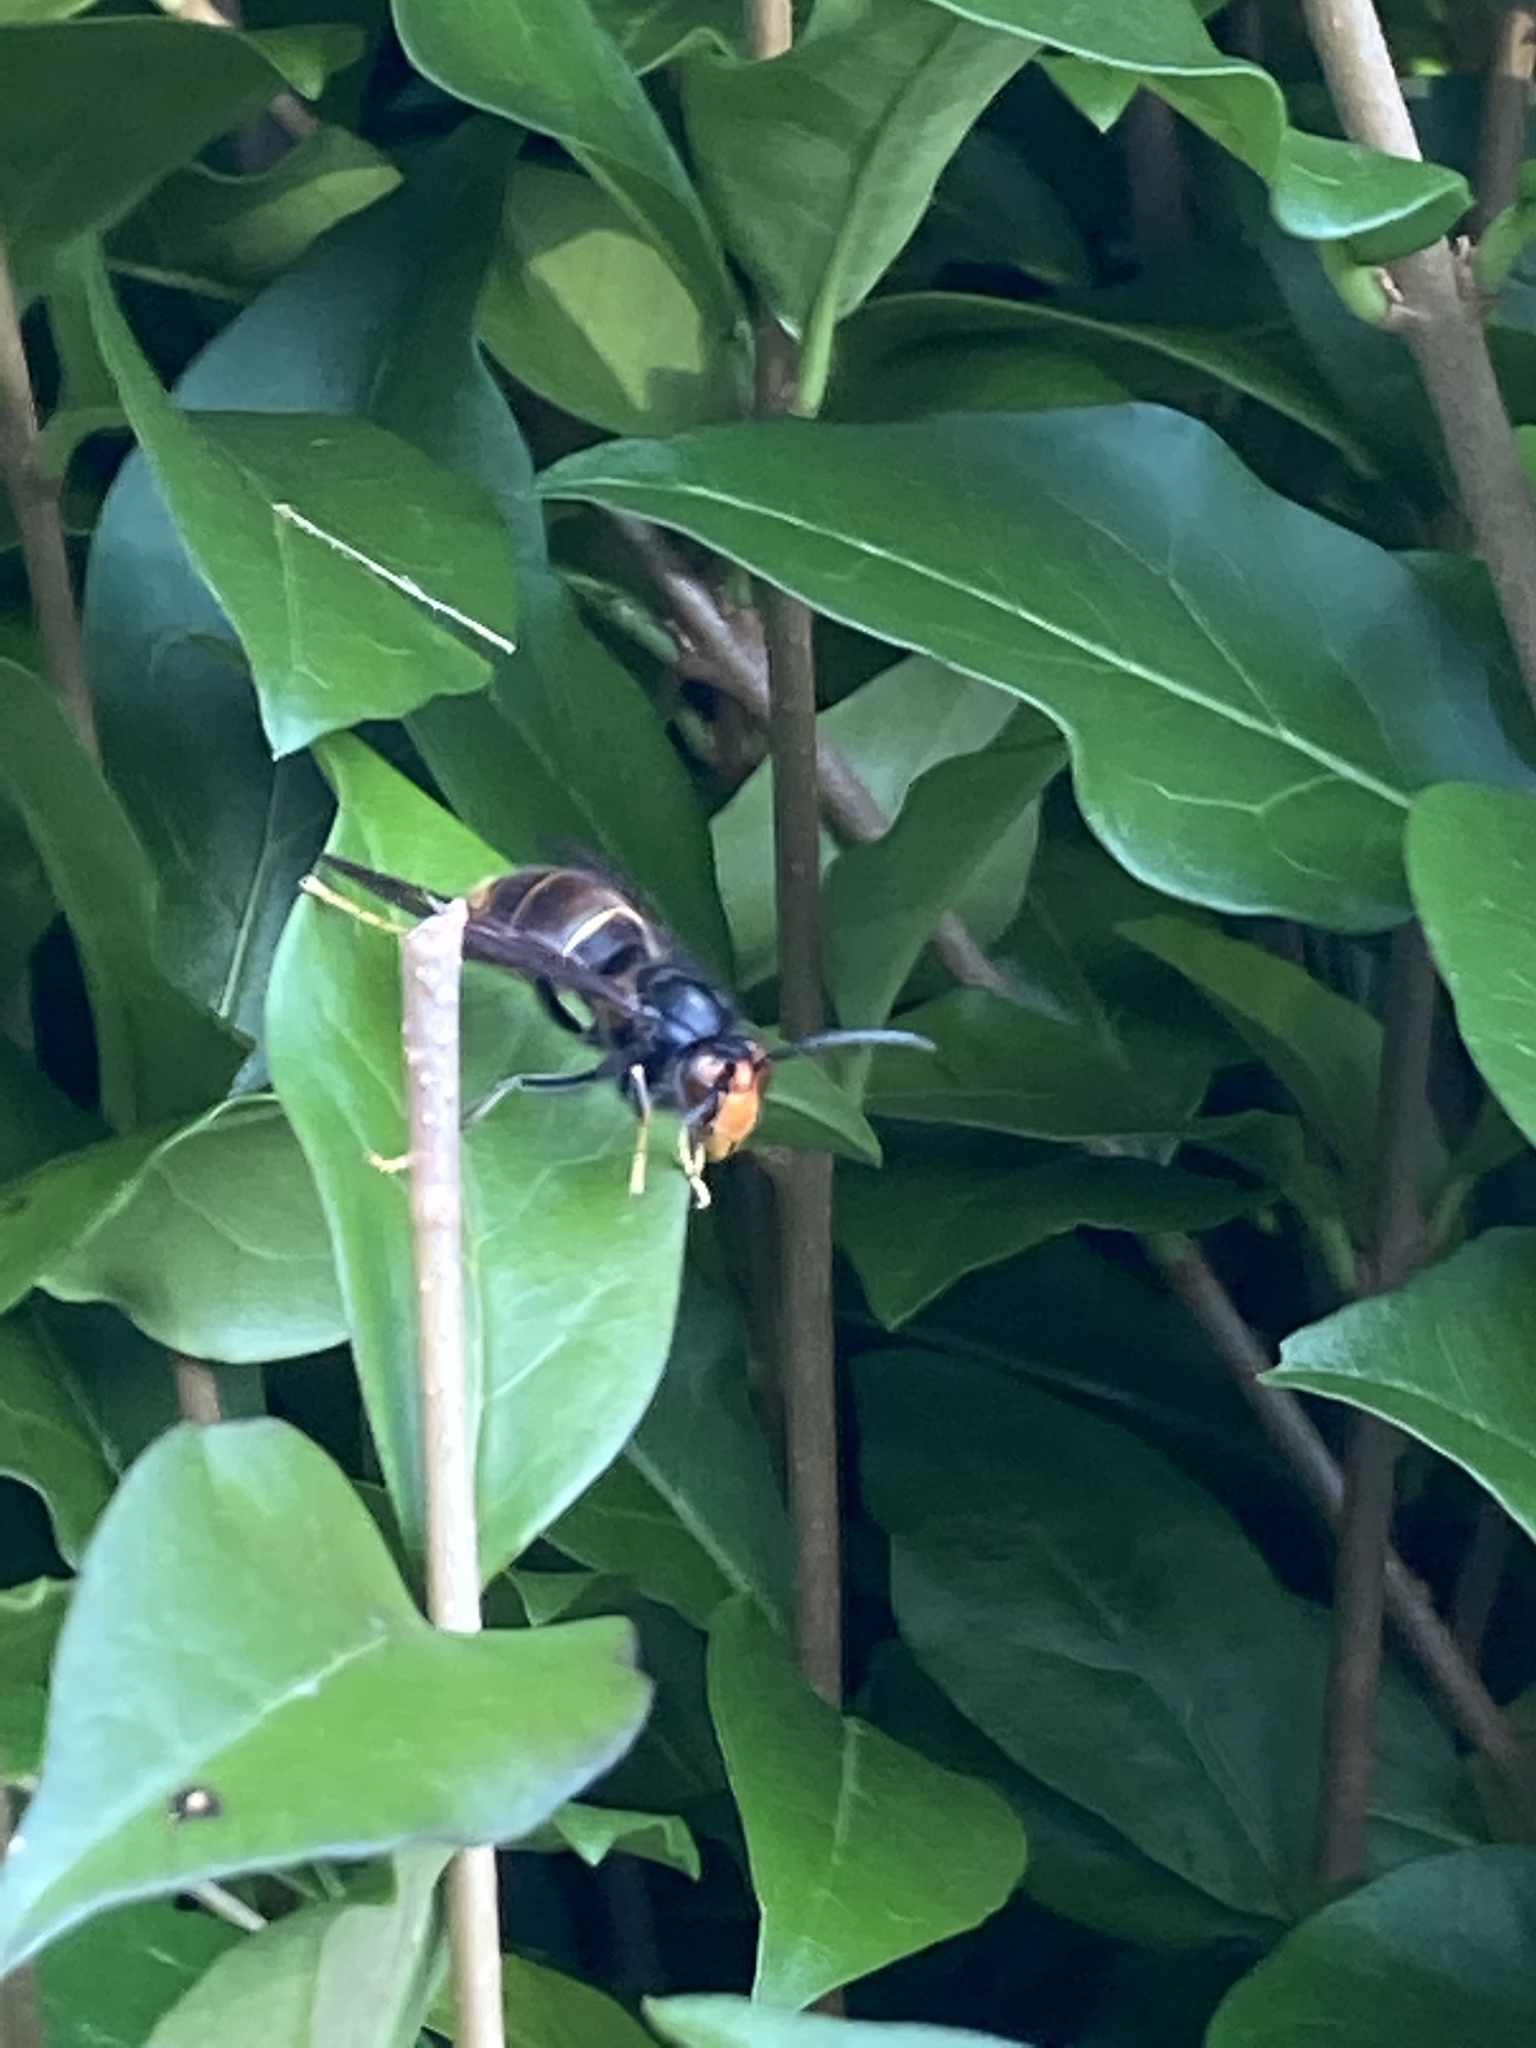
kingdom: Animalia
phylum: Arthropoda
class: Insecta
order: Hymenoptera
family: Vespidae
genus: Vespa
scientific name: Vespa velutina
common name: Asian hornet
